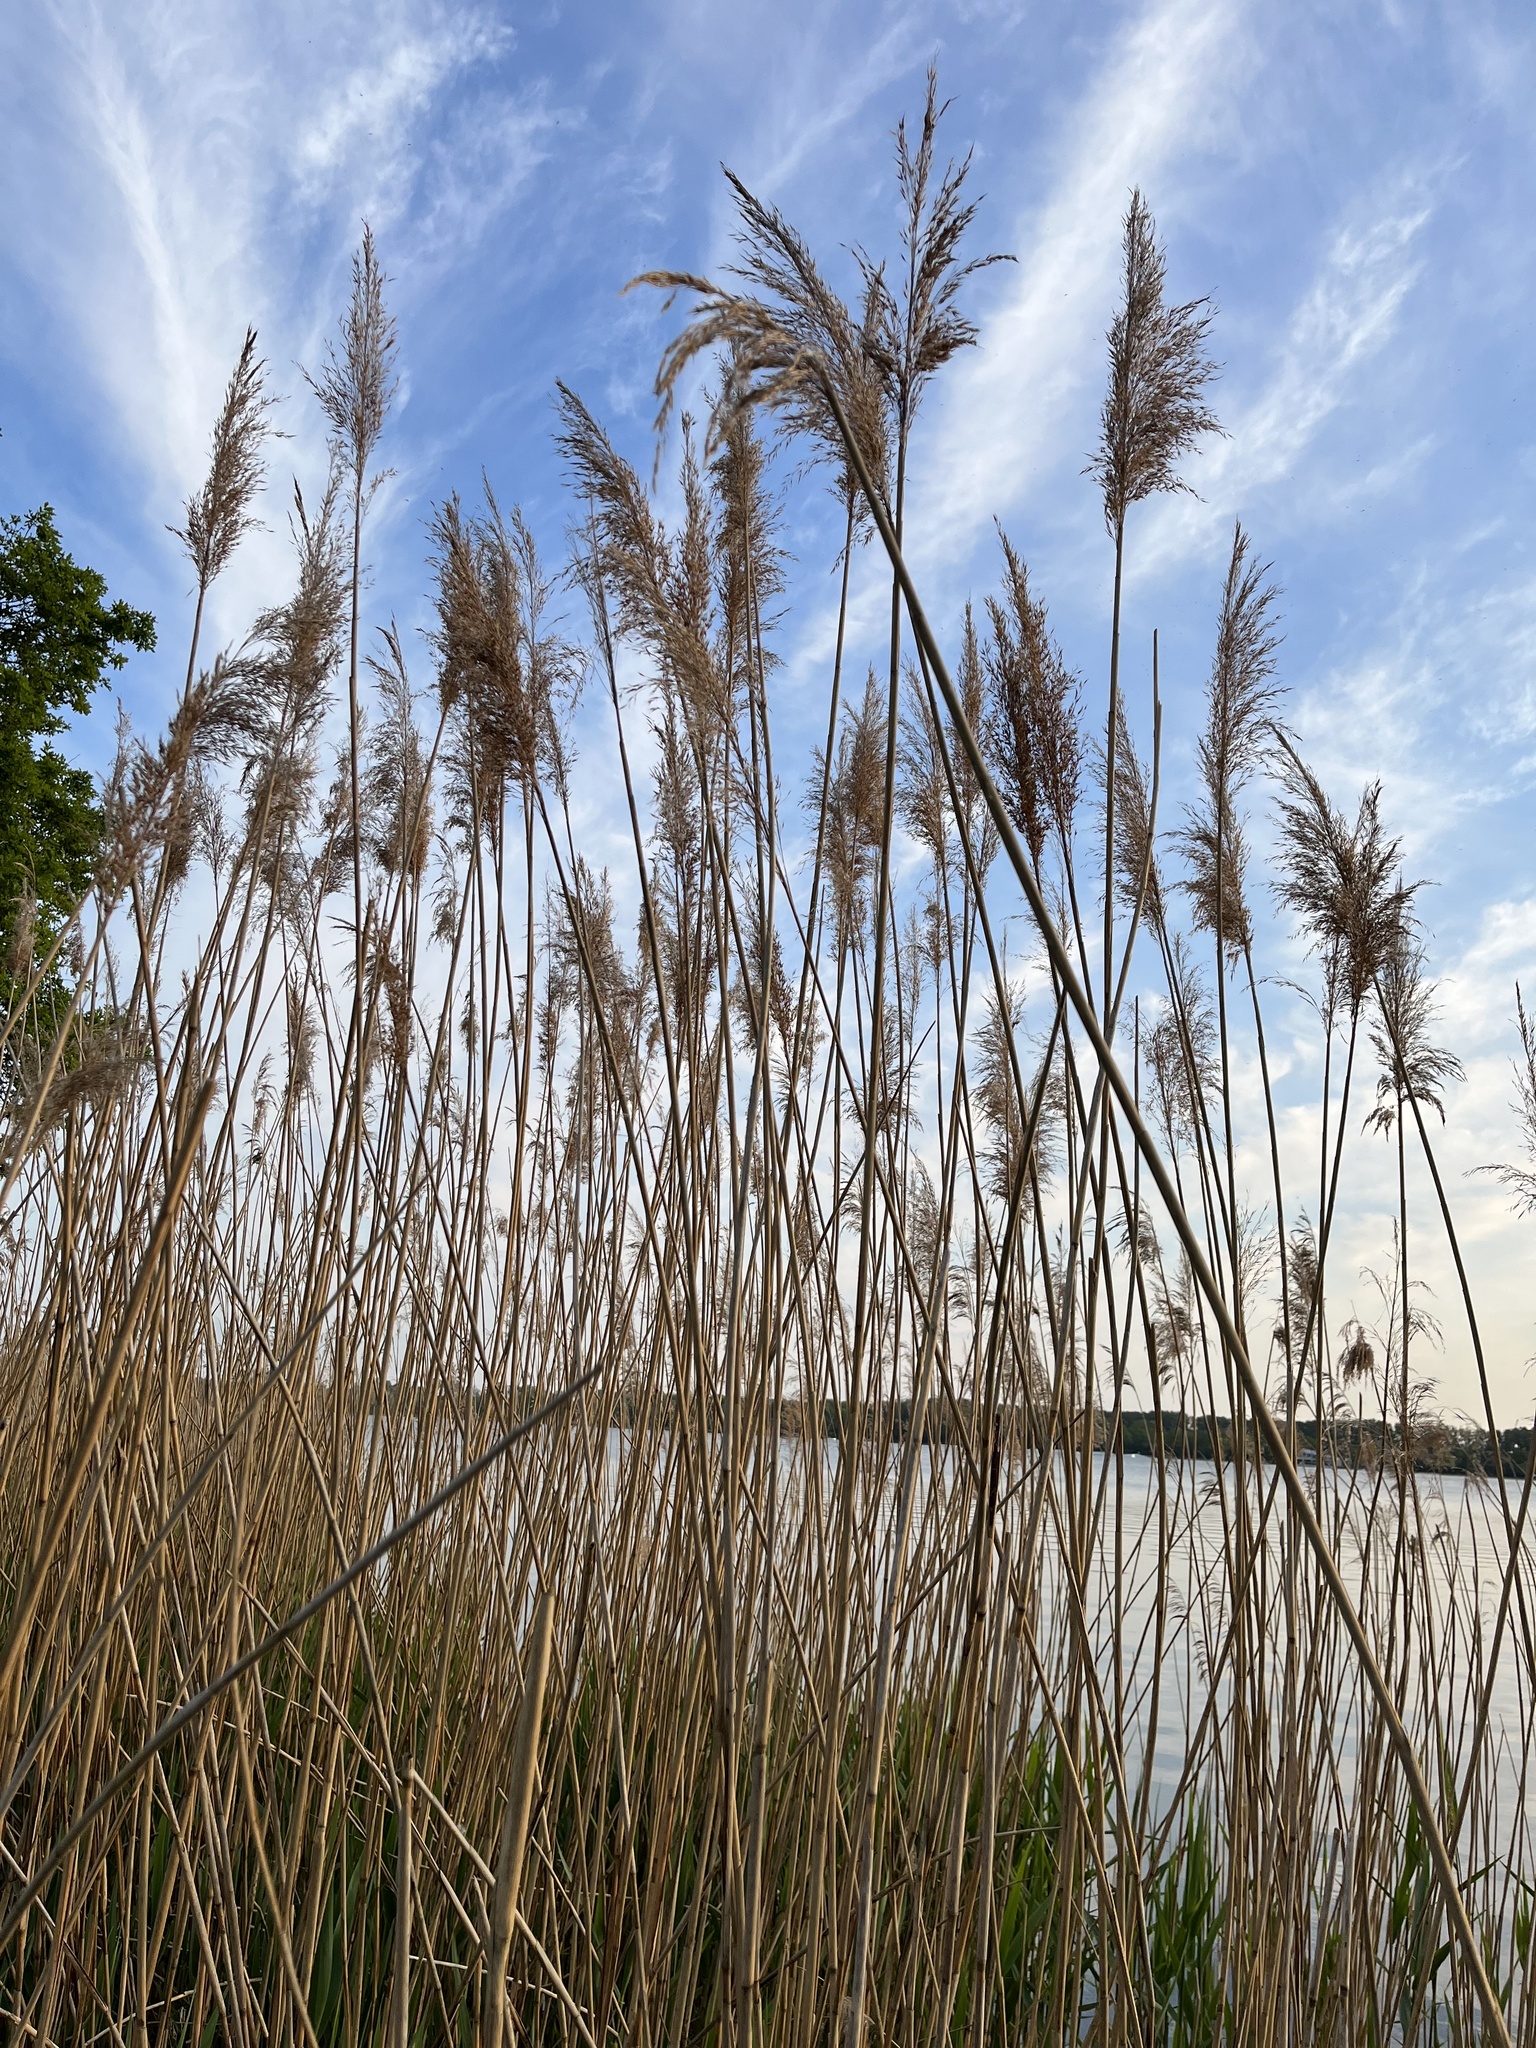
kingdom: Plantae
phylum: Tracheophyta
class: Liliopsida
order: Poales
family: Poaceae
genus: Phragmites
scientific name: Phragmites australis
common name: Common reed
